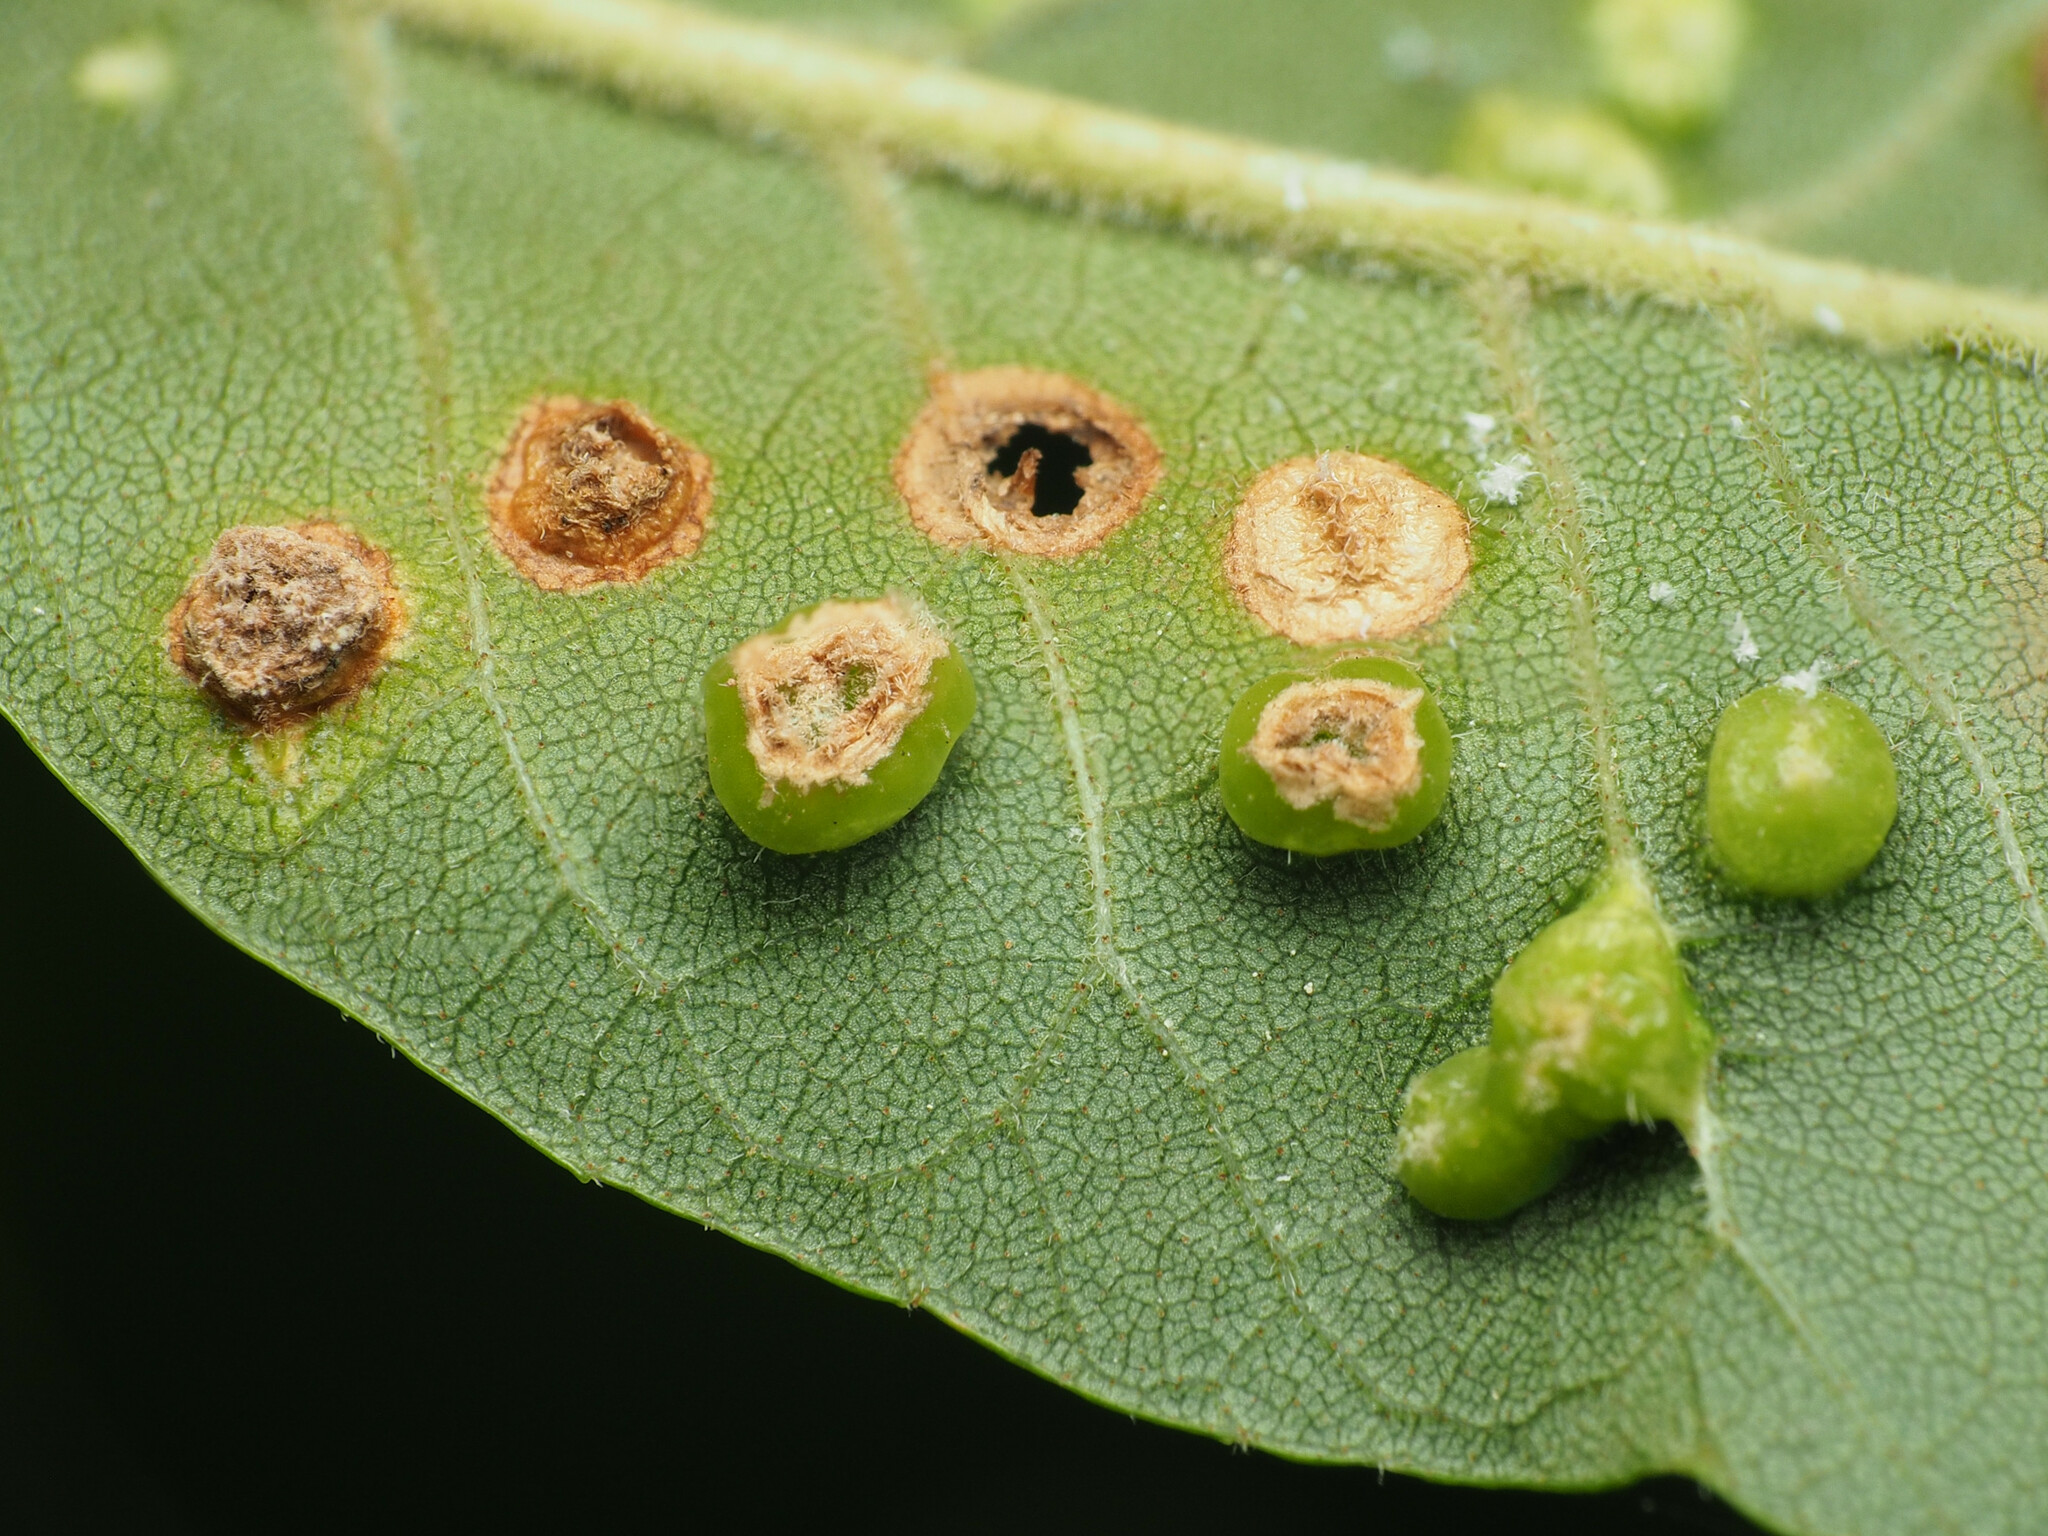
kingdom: Animalia
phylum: Arthropoda
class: Arachnida
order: Trombidiformes
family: Eriophyidae
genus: Aceria
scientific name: Aceria fraxinicola
